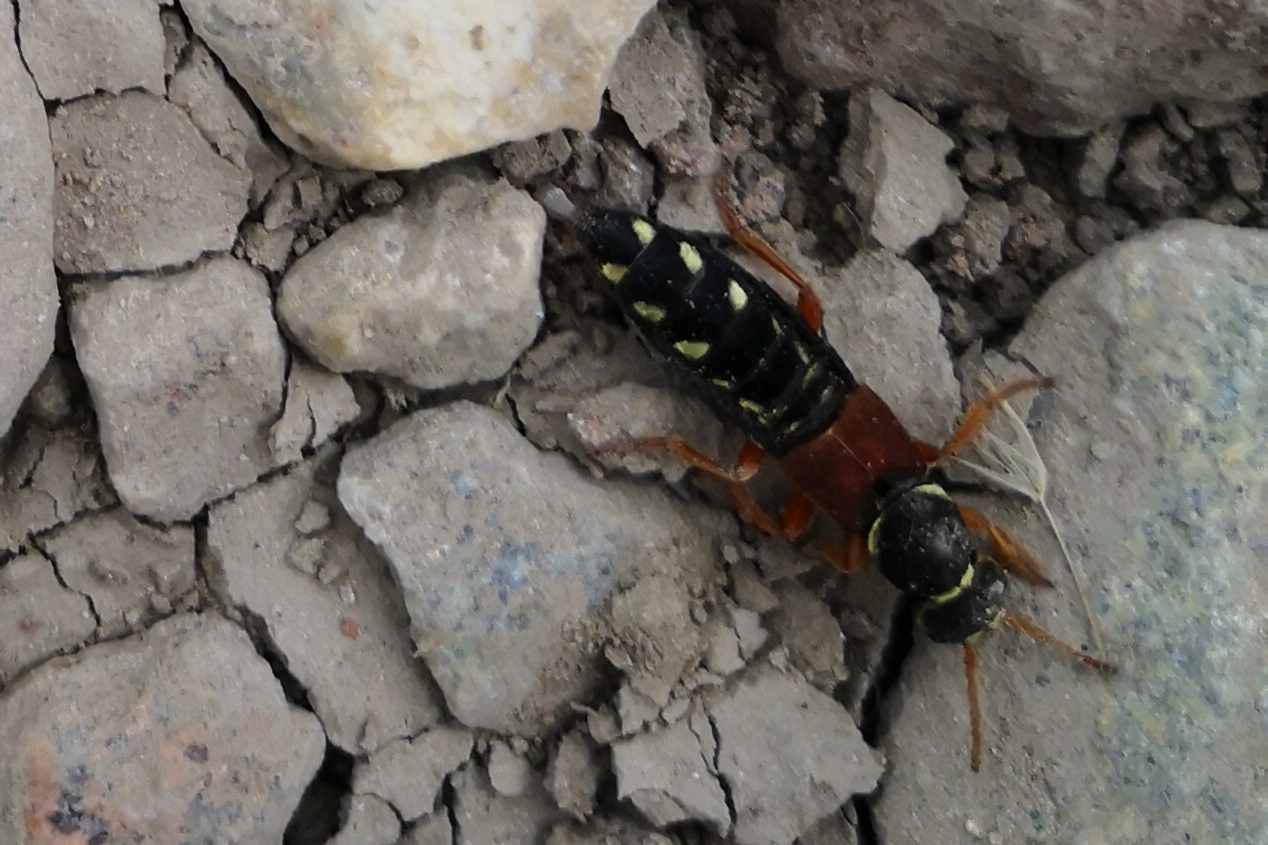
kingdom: Animalia
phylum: Arthropoda
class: Insecta
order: Coleoptera
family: Staphylinidae
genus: Staphylinus
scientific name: Staphylinus caesareus
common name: Staph beetle
